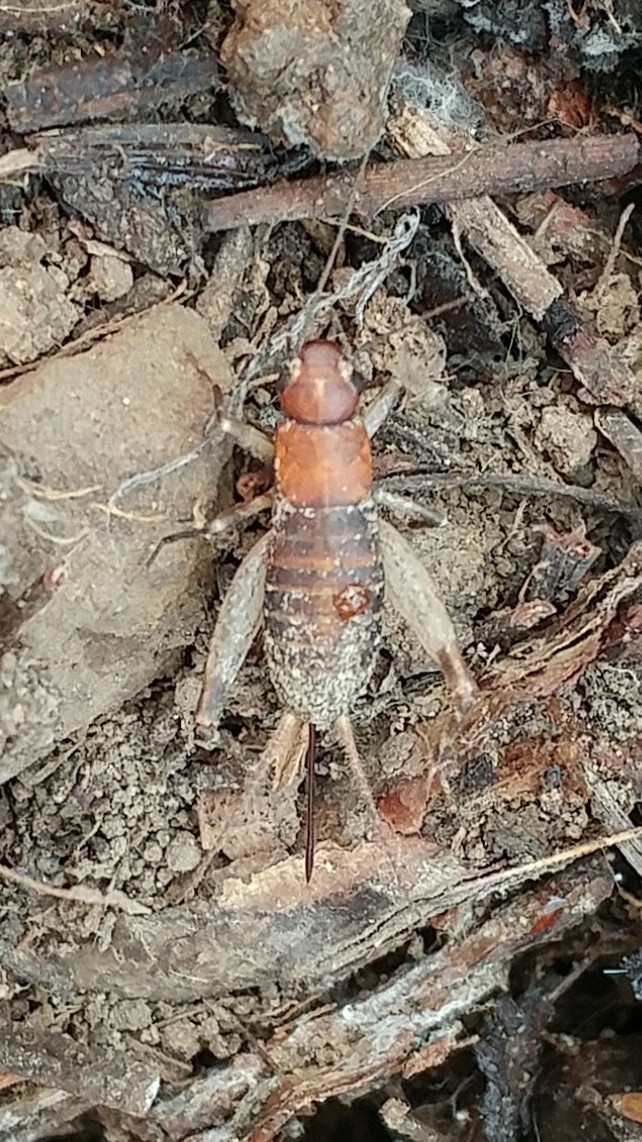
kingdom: Animalia
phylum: Arthropoda
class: Insecta
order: Orthoptera
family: Mogoplistidae
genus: Hoplosphyrum
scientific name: Hoplosphyrum boreale
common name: Long-winged scaly cricket
